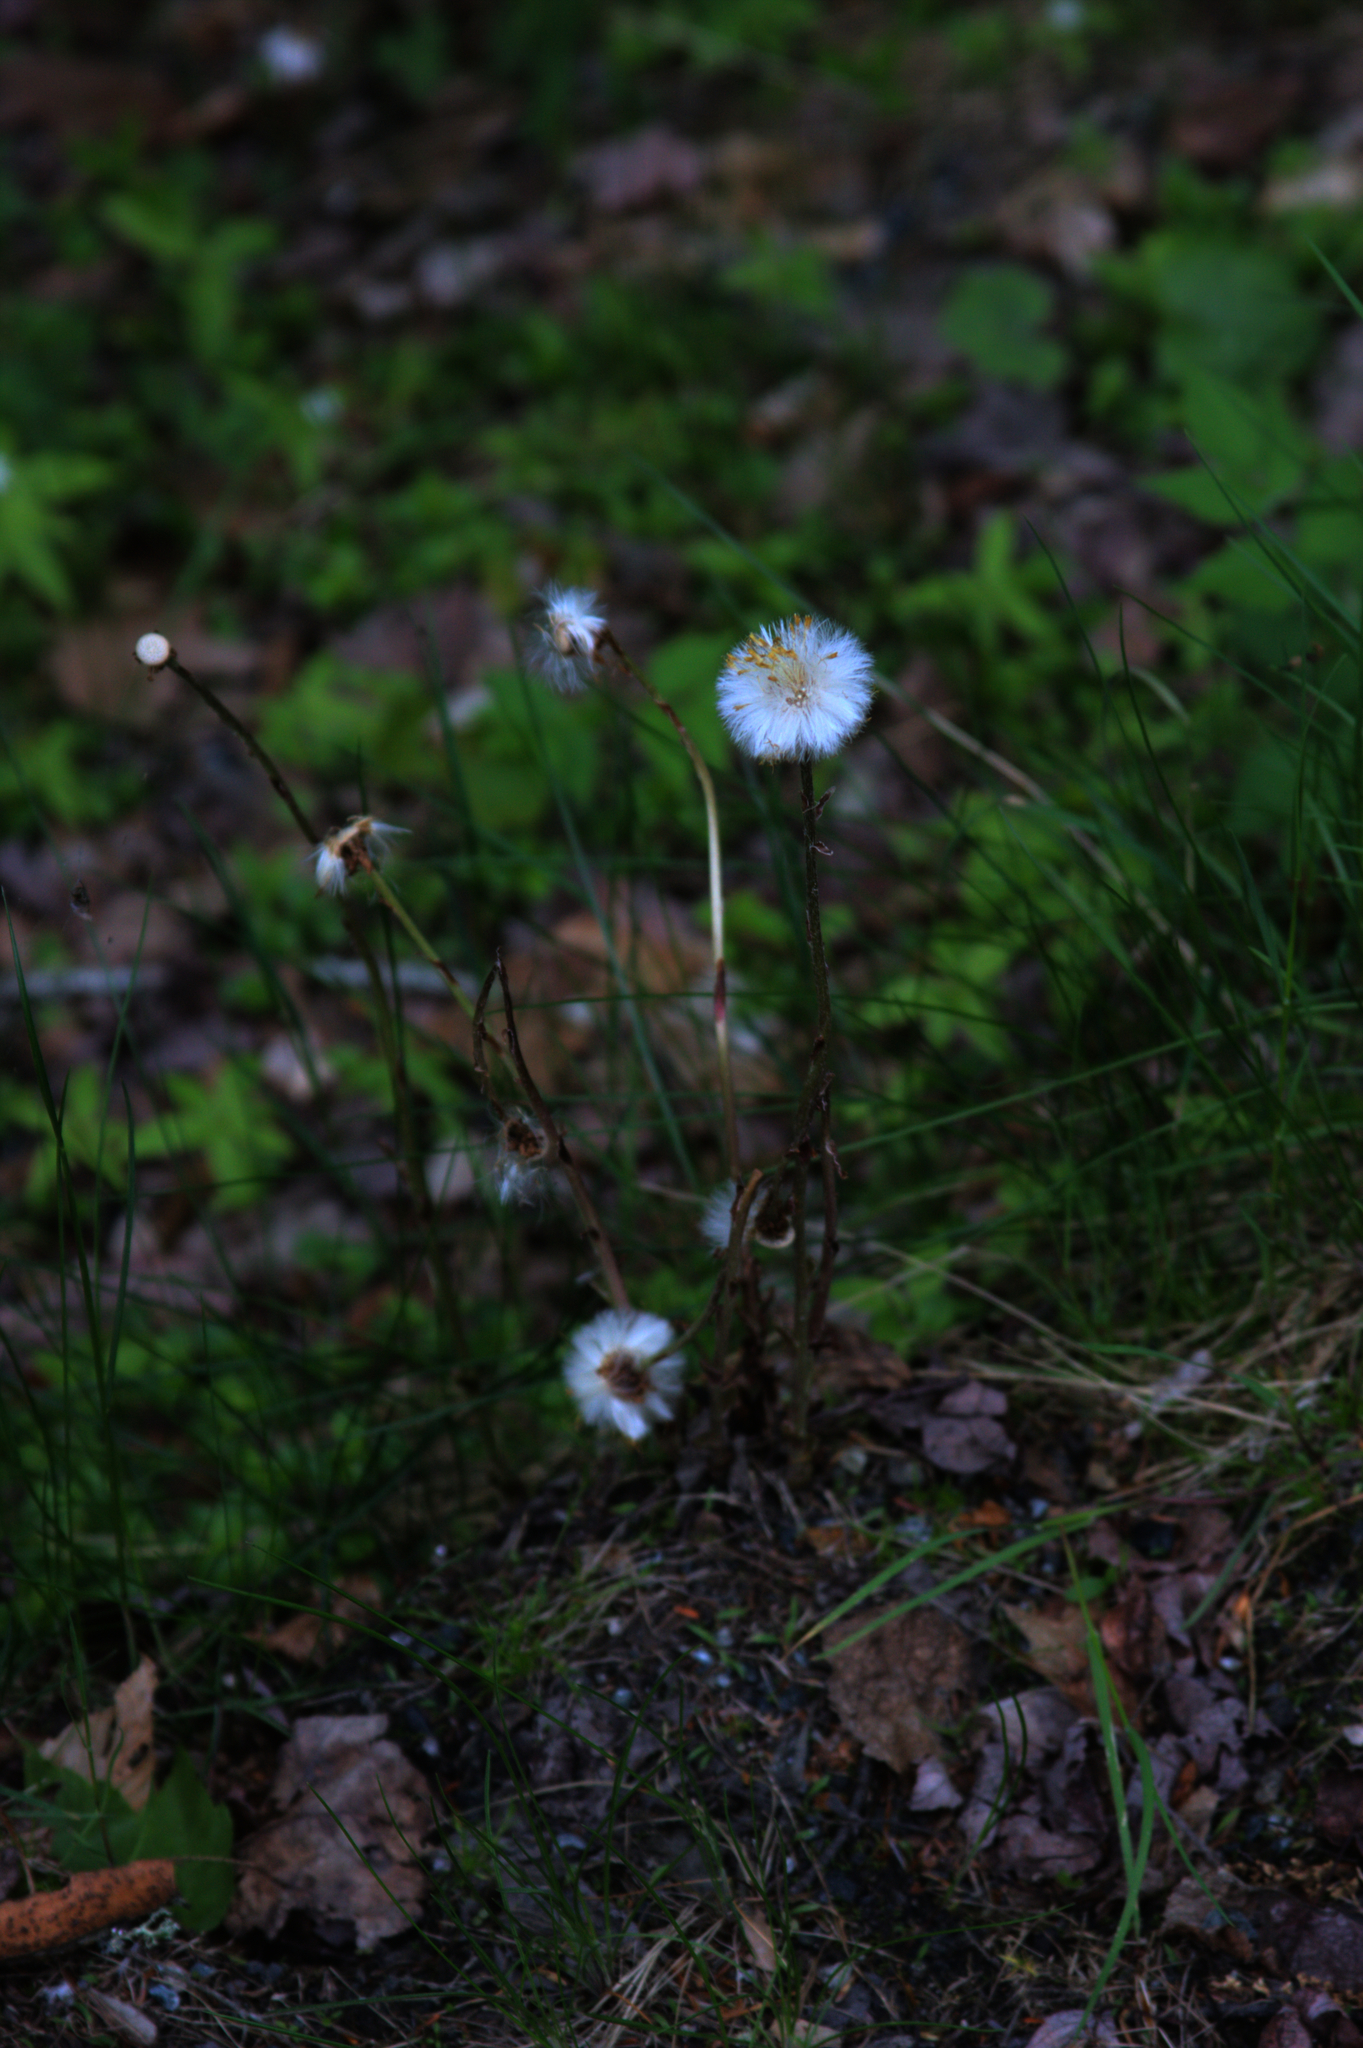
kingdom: Plantae
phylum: Tracheophyta
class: Magnoliopsida
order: Asterales
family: Asteraceae
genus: Tussilago
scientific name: Tussilago farfara
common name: Coltsfoot
